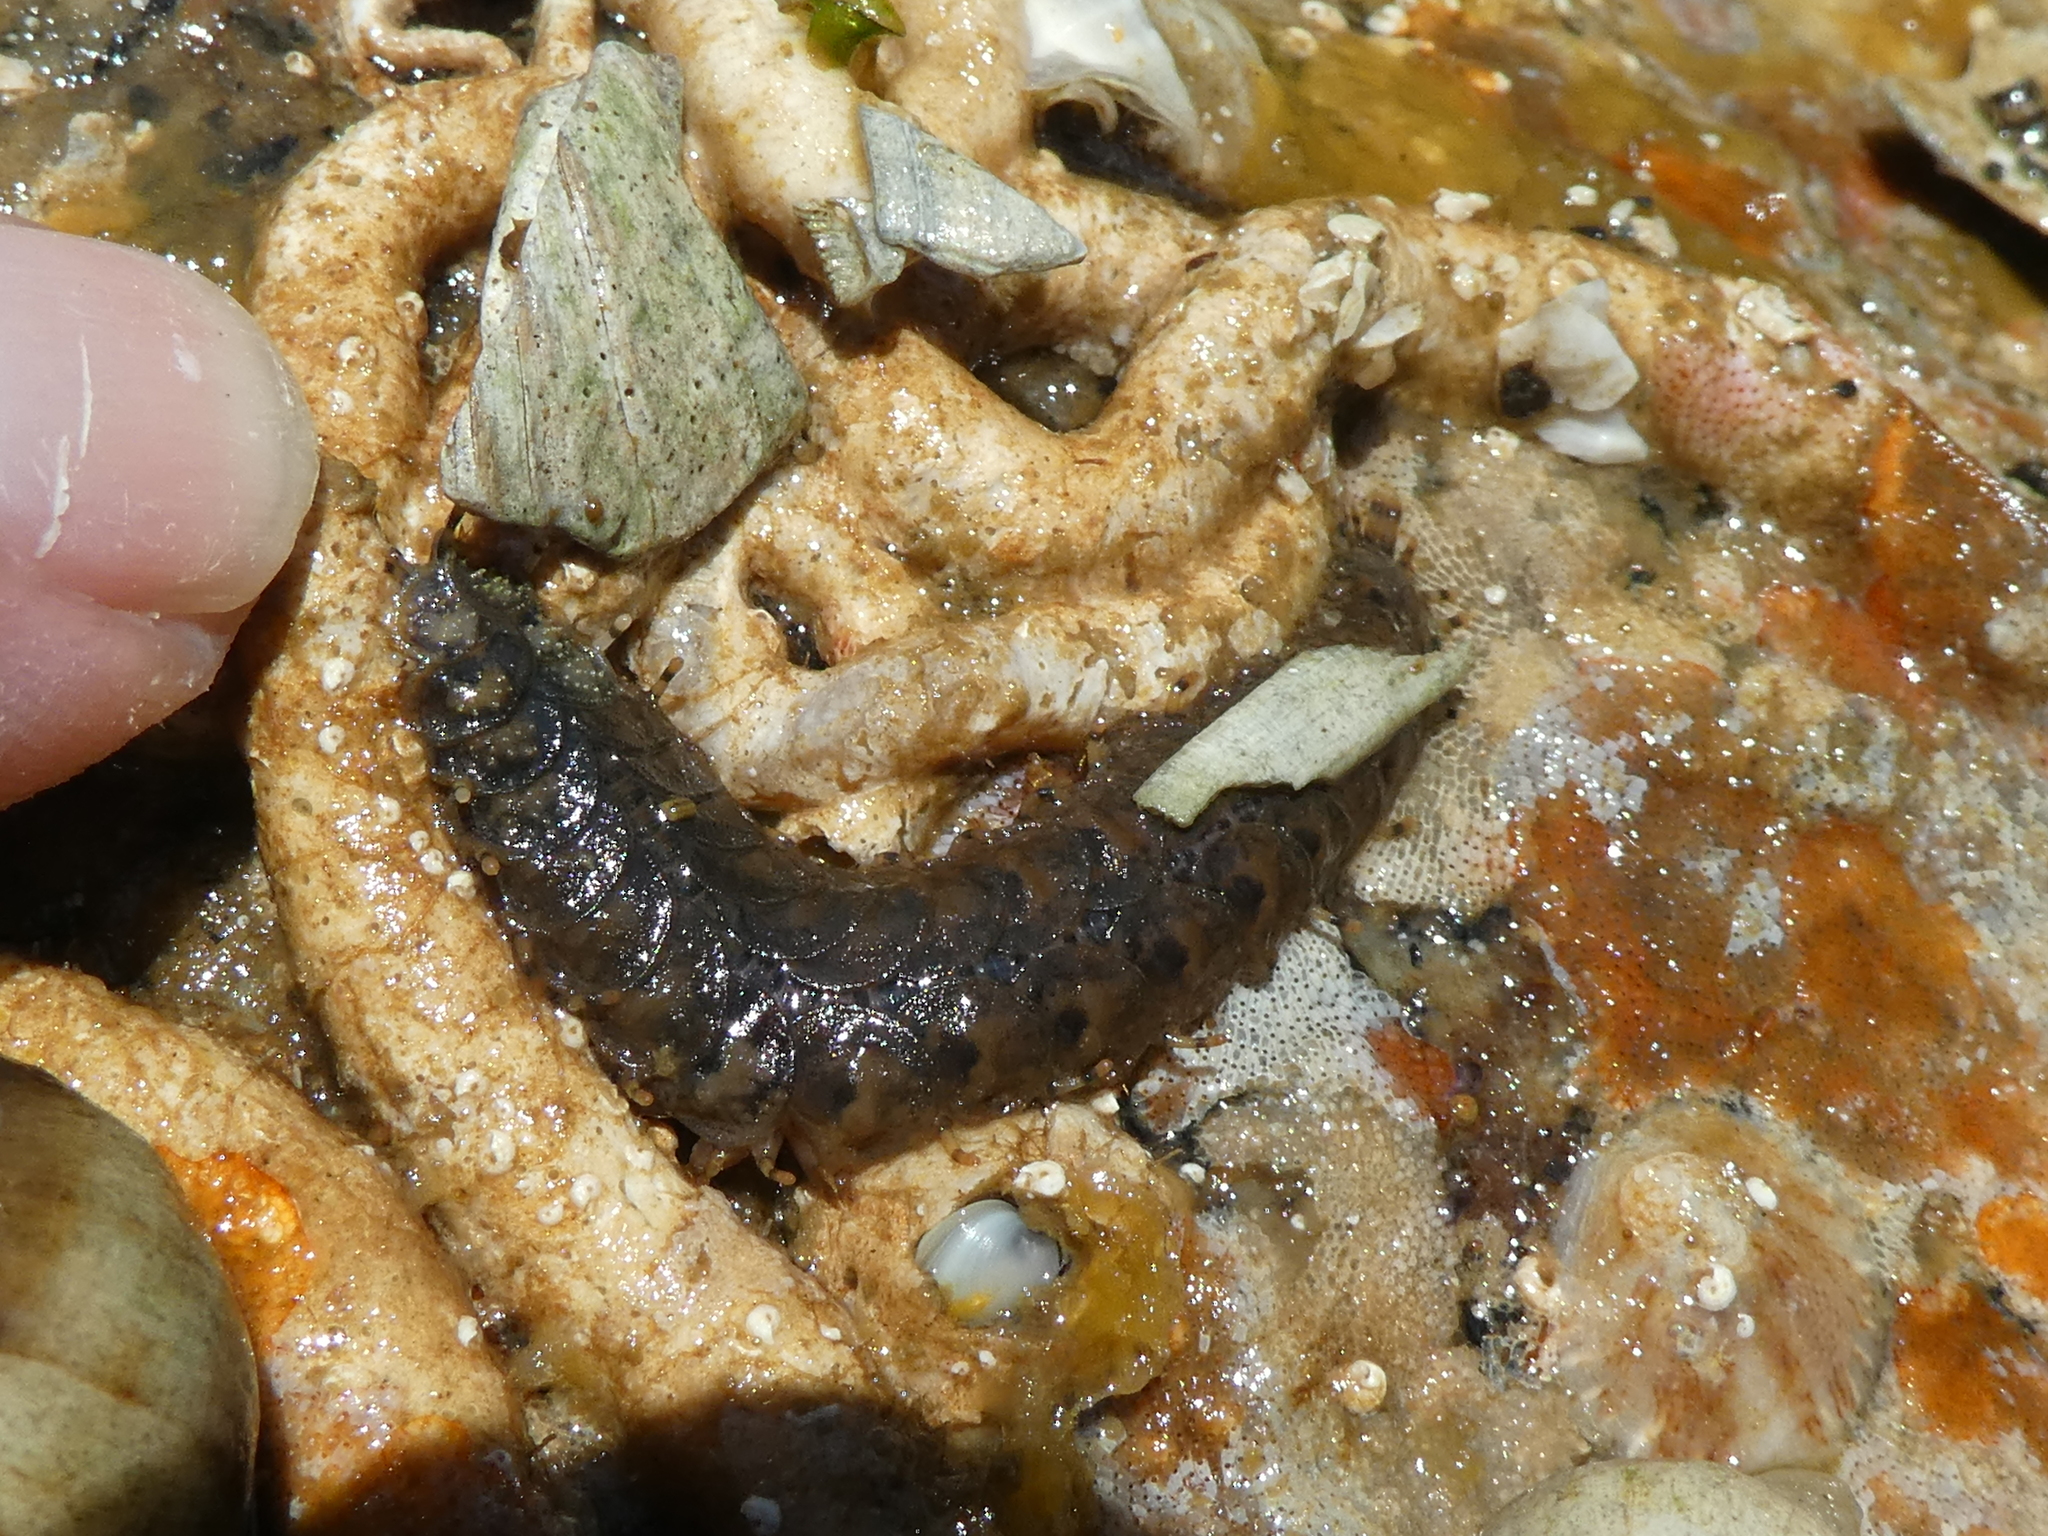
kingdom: Animalia
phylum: Annelida
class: Polychaeta
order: Phyllodocida
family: Polynoidae
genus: Halosydna
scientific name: Halosydna brevisetosa
